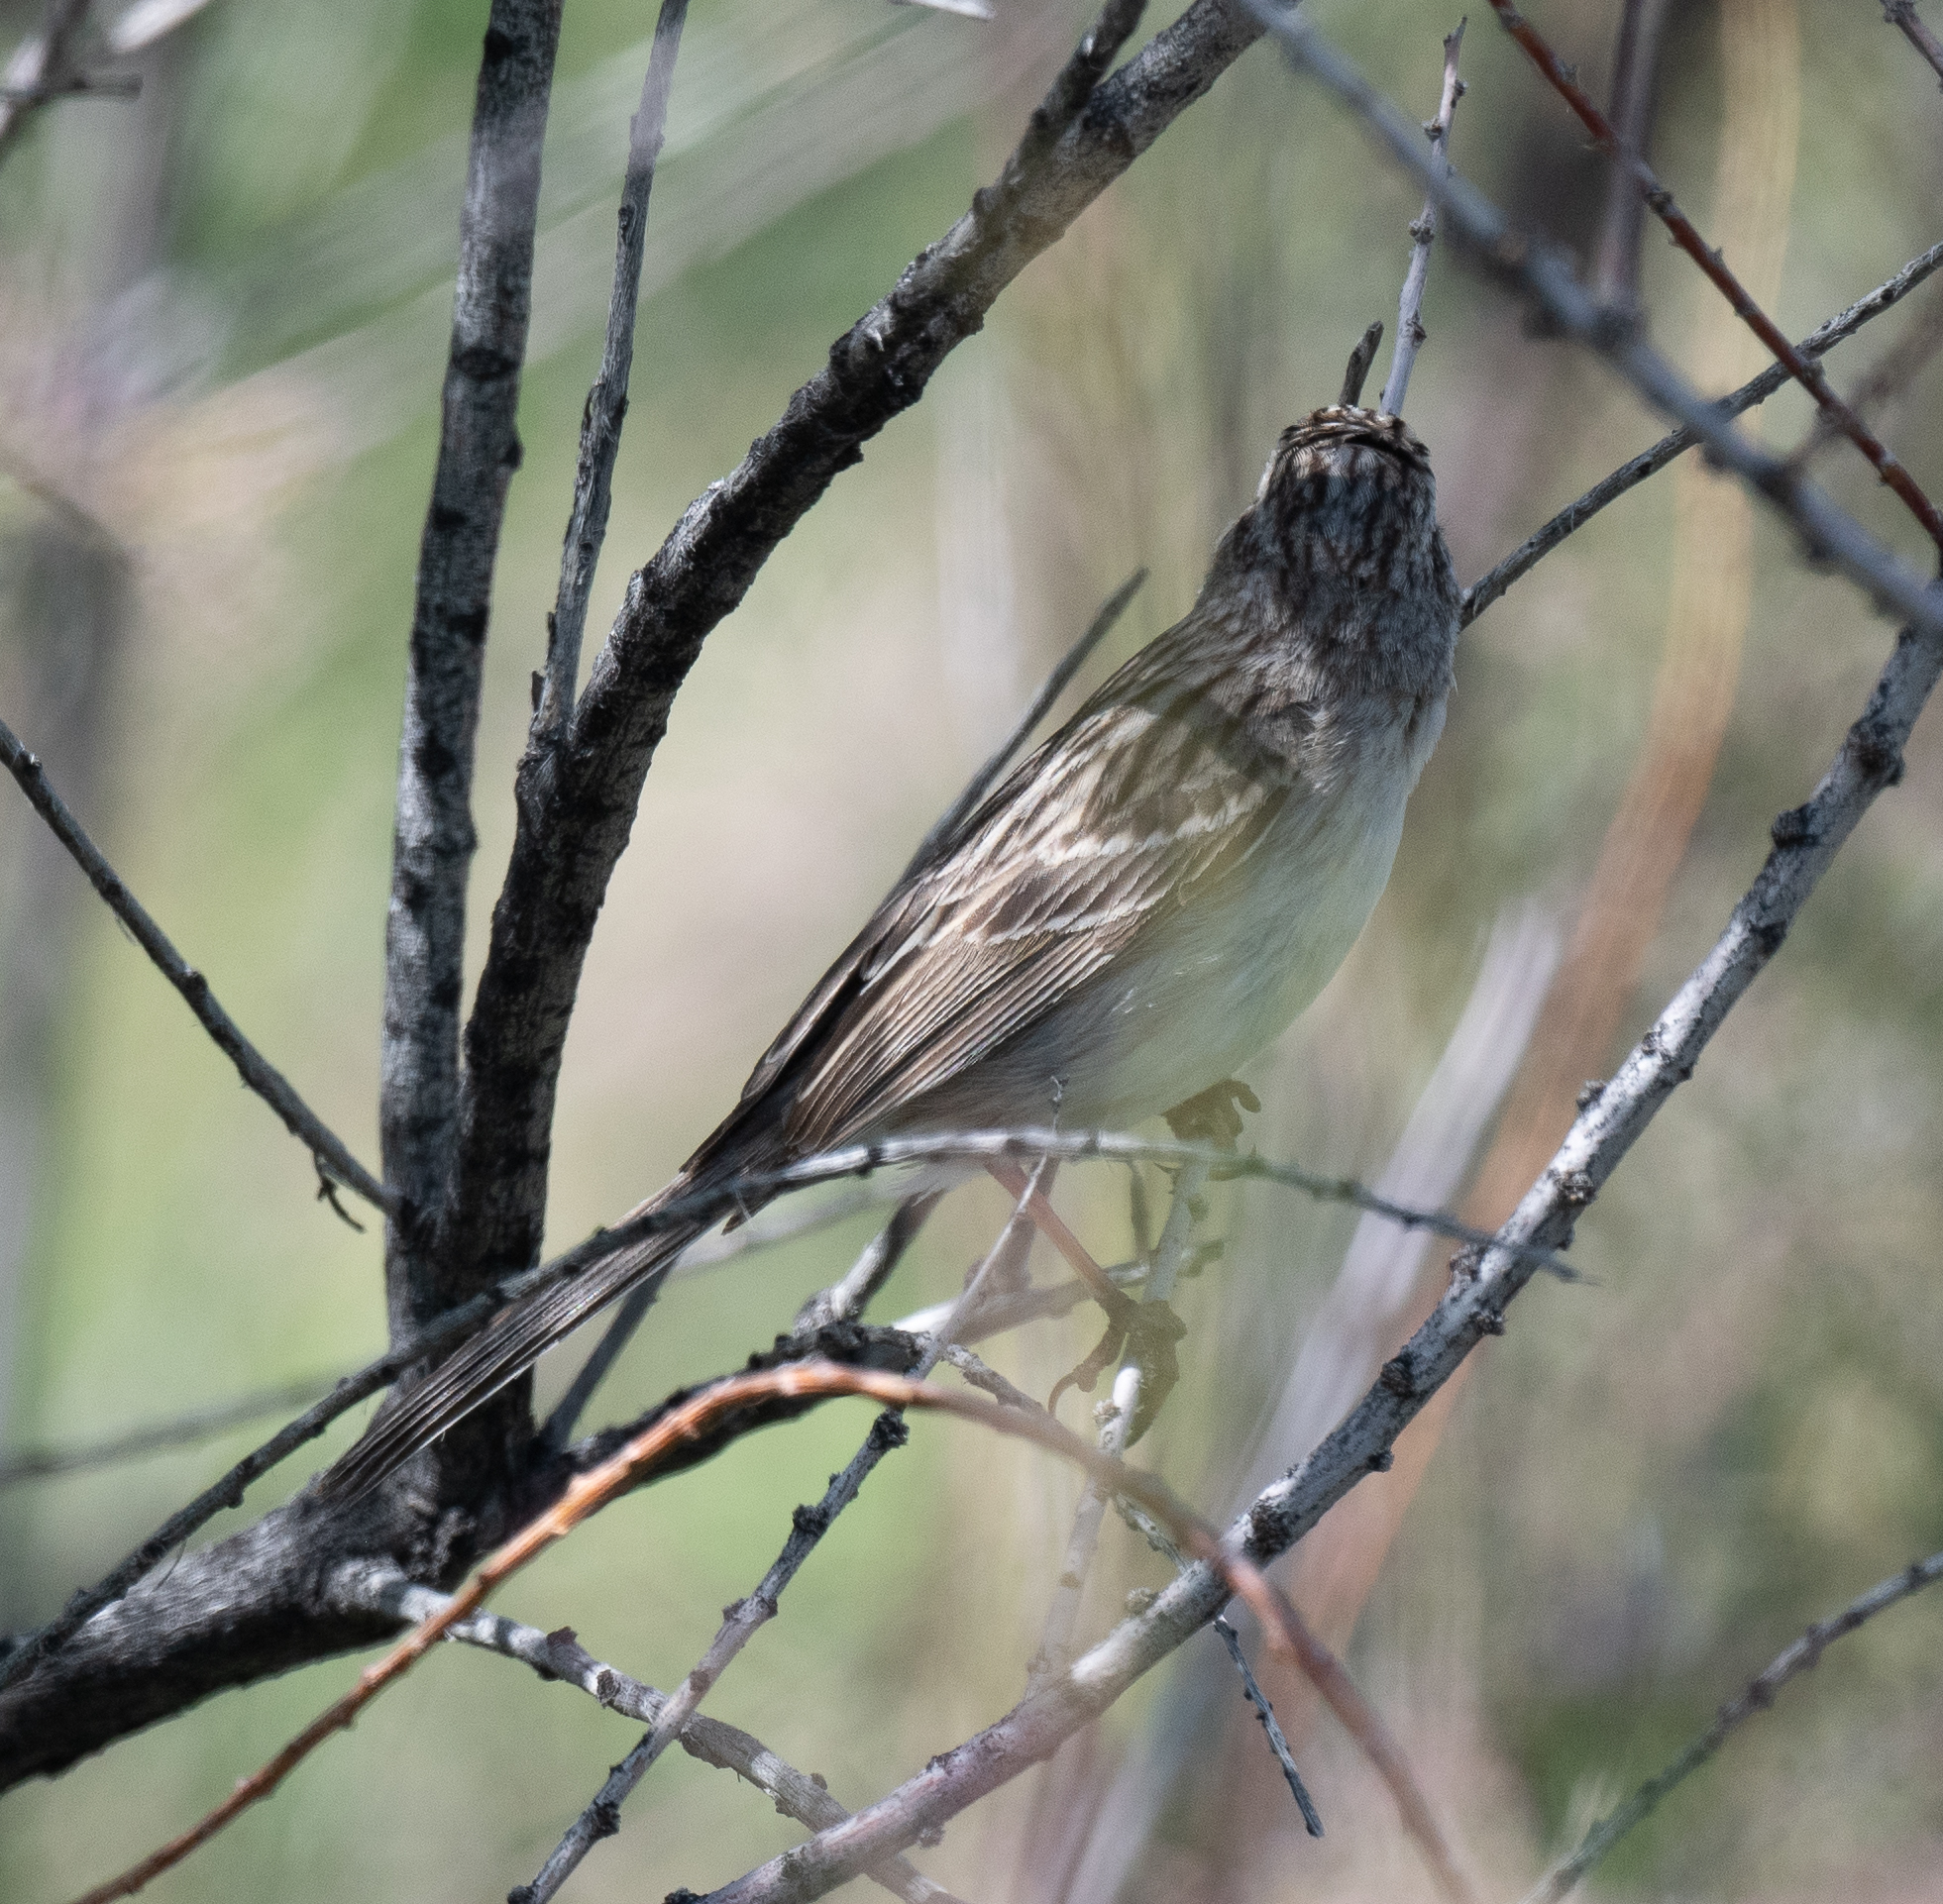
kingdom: Animalia
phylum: Chordata
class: Aves
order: Passeriformes
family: Passerellidae
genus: Spizella
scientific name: Spizella breweri
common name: Brewer's sparrow
